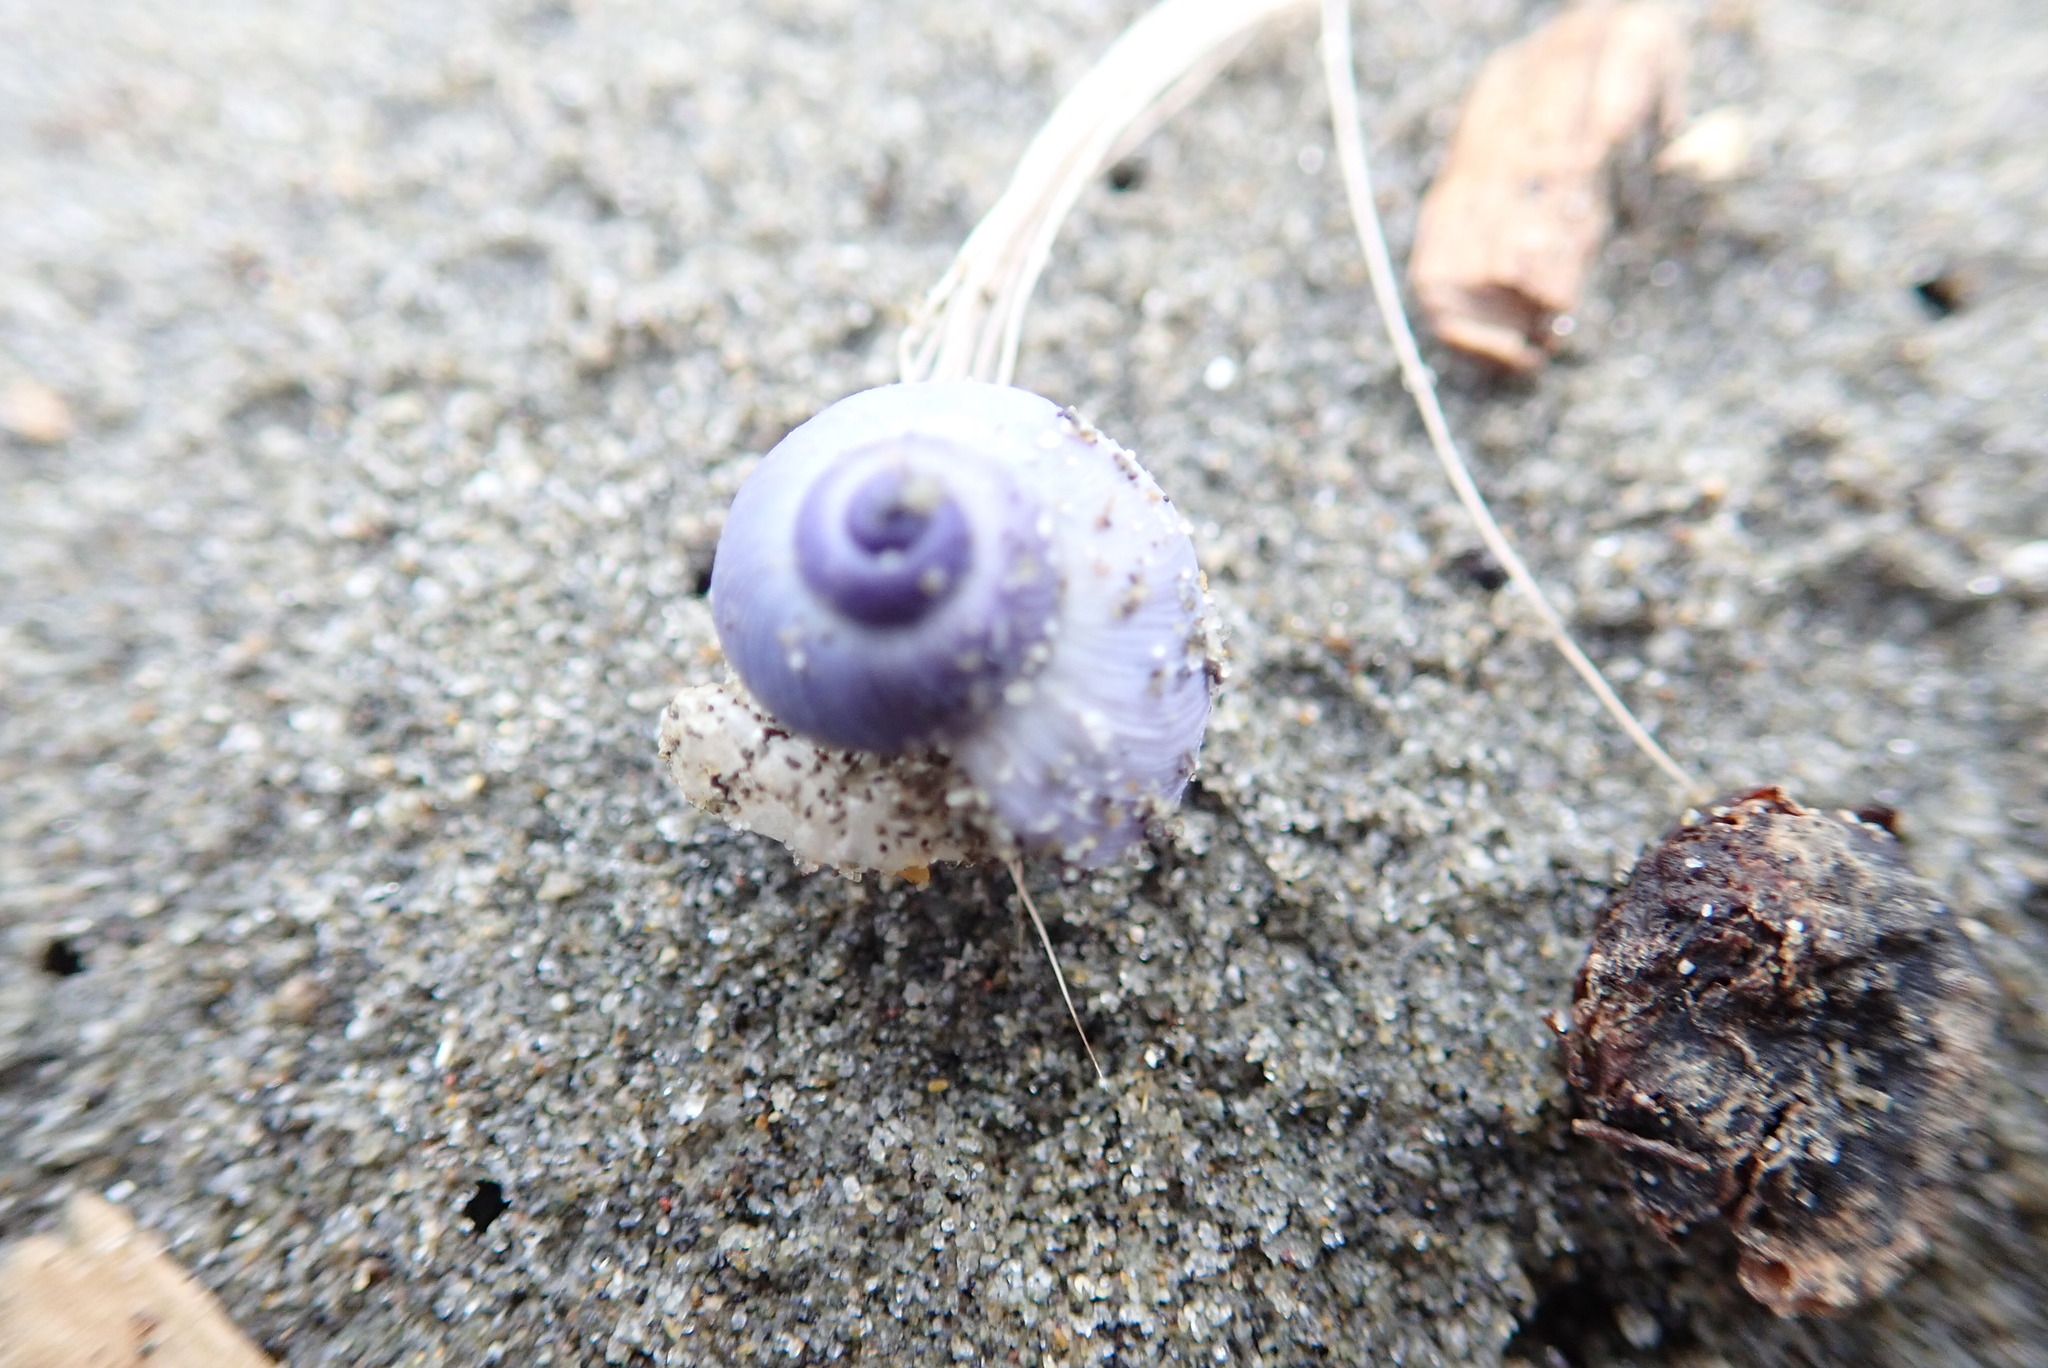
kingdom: Animalia
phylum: Mollusca
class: Gastropoda
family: Epitoniidae
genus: Janthina
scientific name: Janthina exigua
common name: Dwarf janthina
